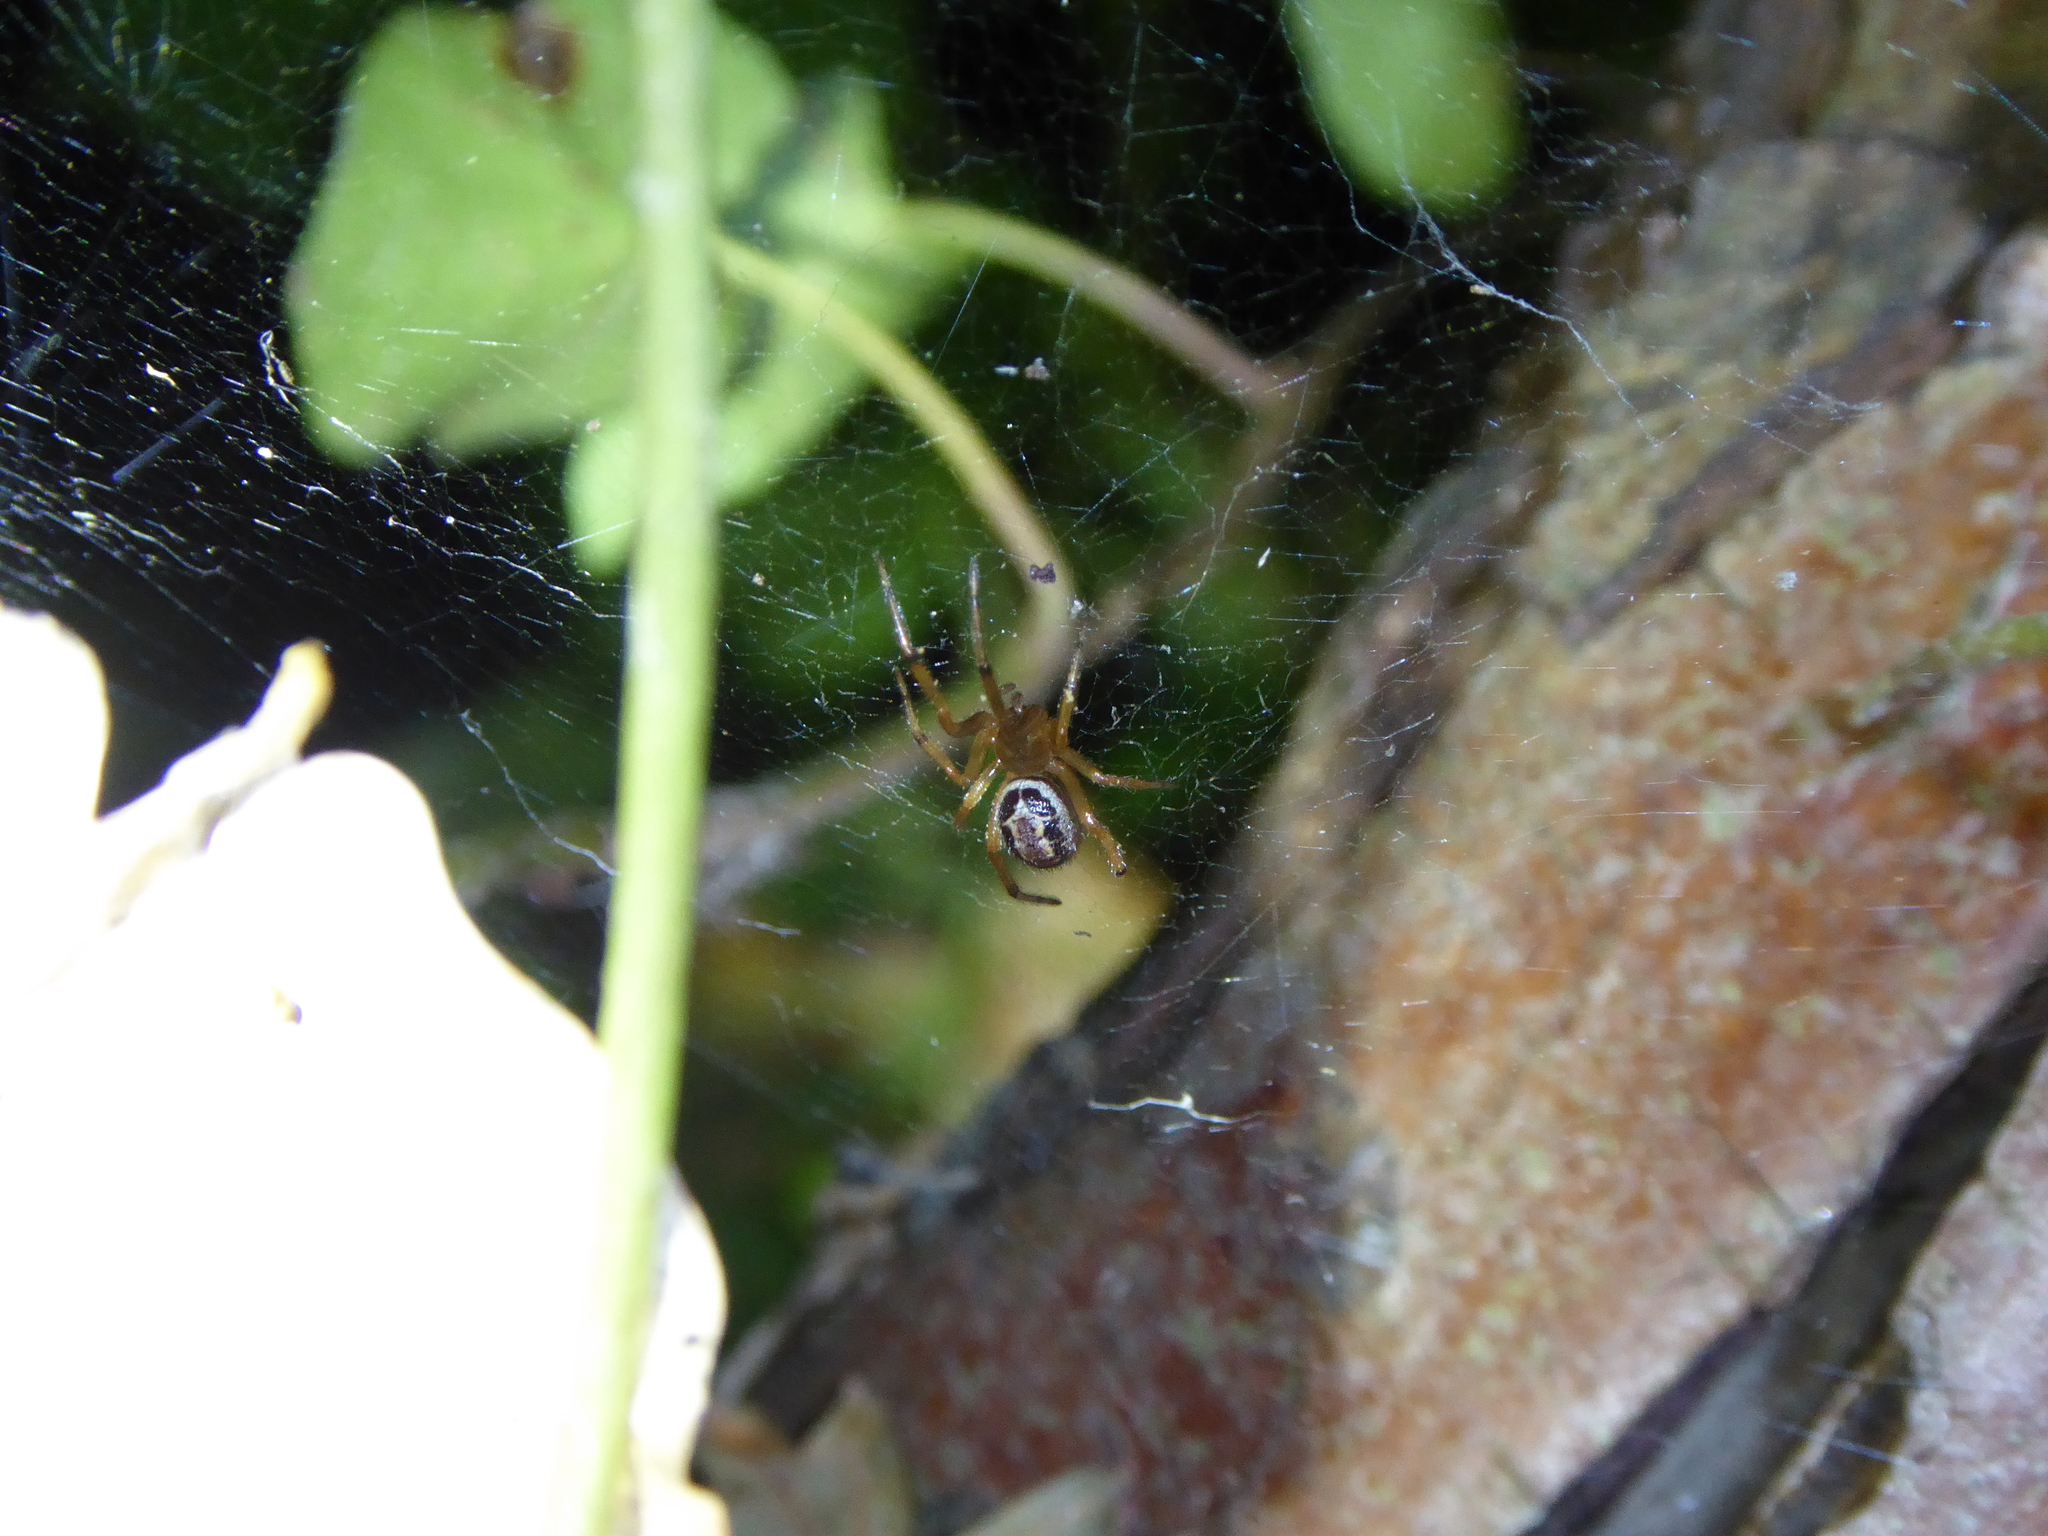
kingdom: Animalia
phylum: Arthropoda
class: Arachnida
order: Araneae
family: Theridiidae
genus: Steatoda
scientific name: Steatoda nobilis
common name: Cobweb weaver
